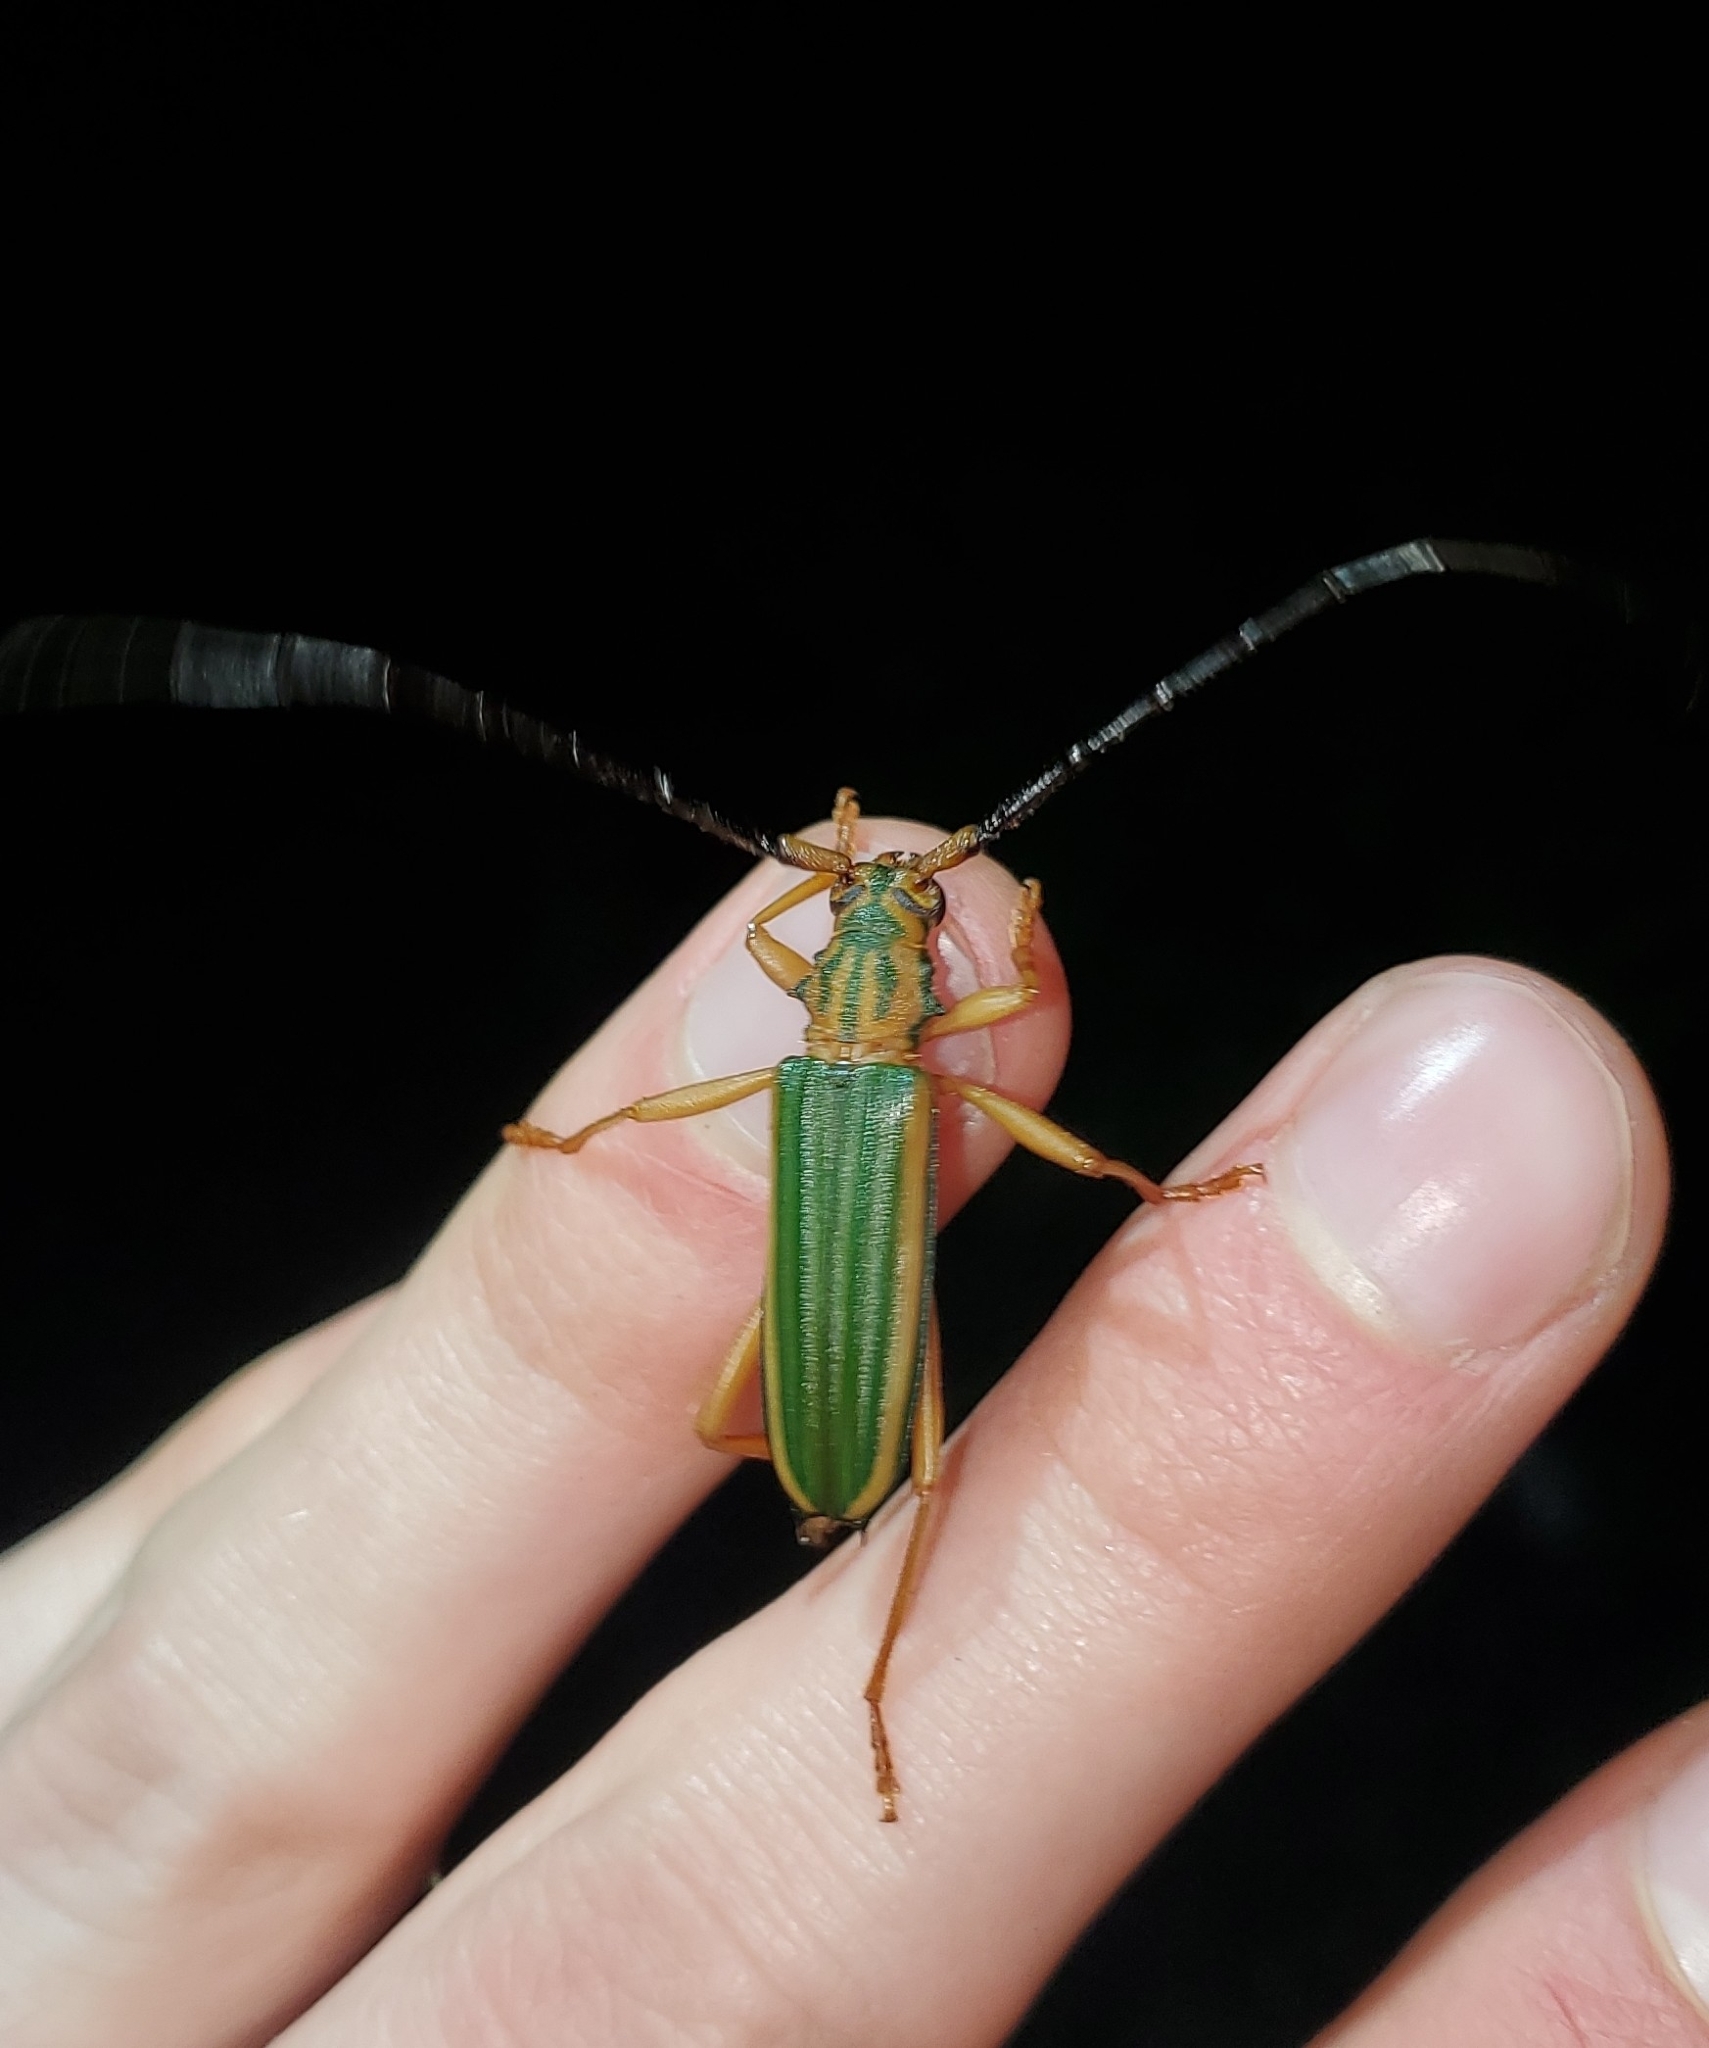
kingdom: Animalia
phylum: Arthropoda
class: Insecta
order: Coleoptera
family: Cerambycidae
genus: Chlorida
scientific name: Chlorida festiva
